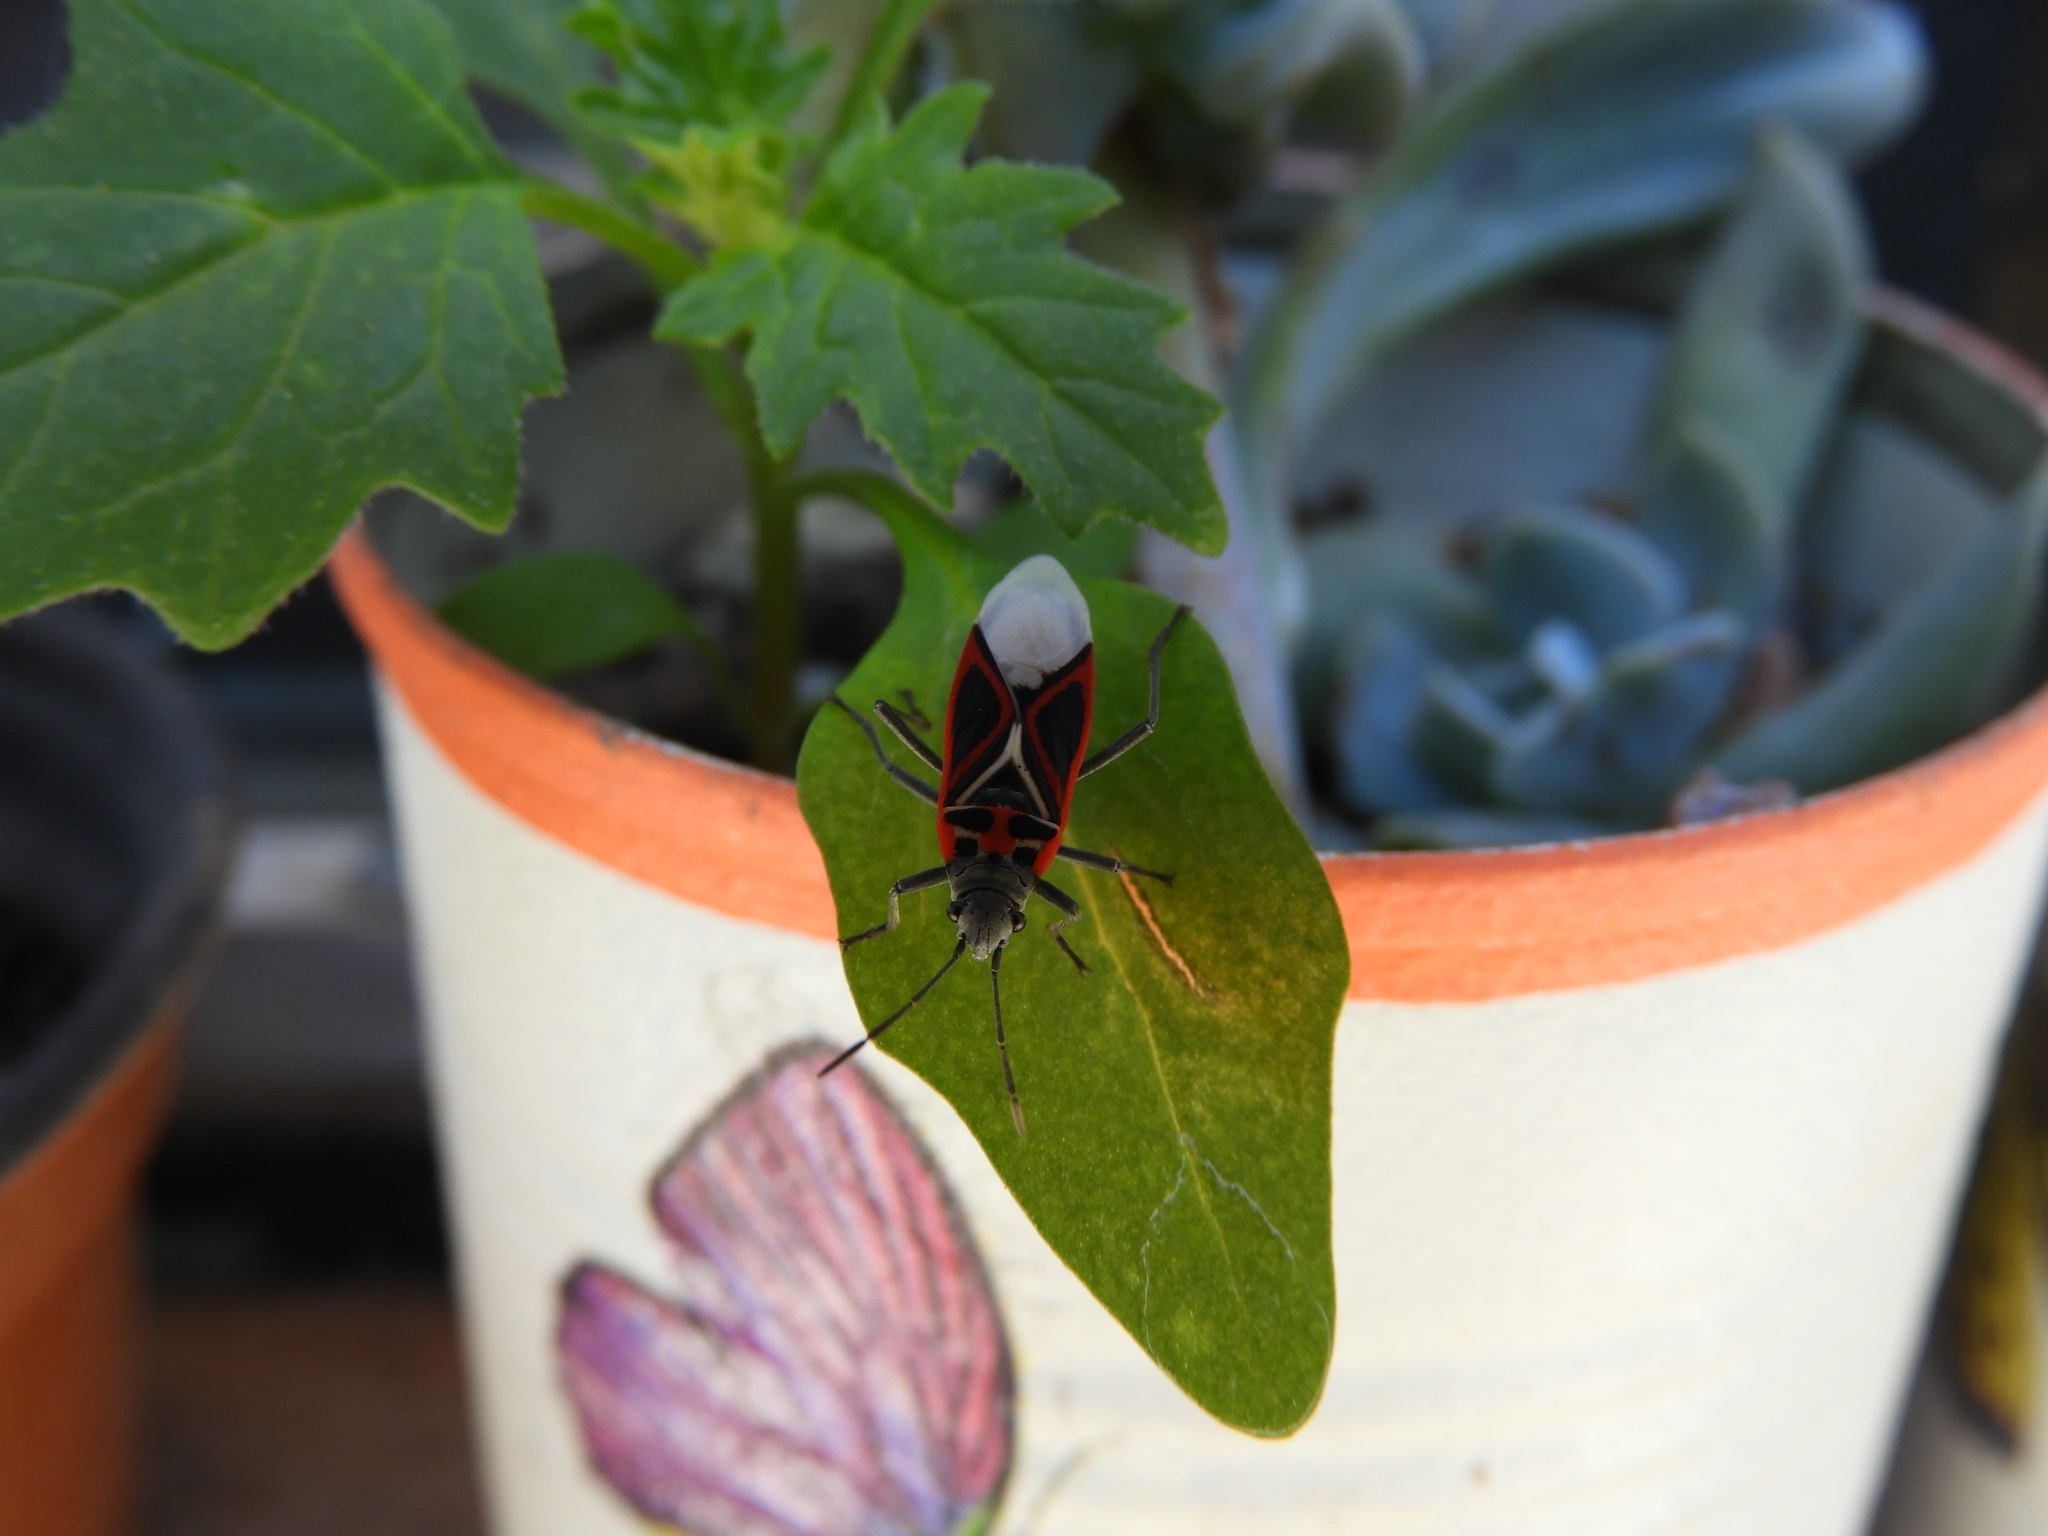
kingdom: Animalia
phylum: Arthropoda
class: Insecta
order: Hemiptera
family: Lygaeidae
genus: Anochrostomus
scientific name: Anochrostomus formosus
